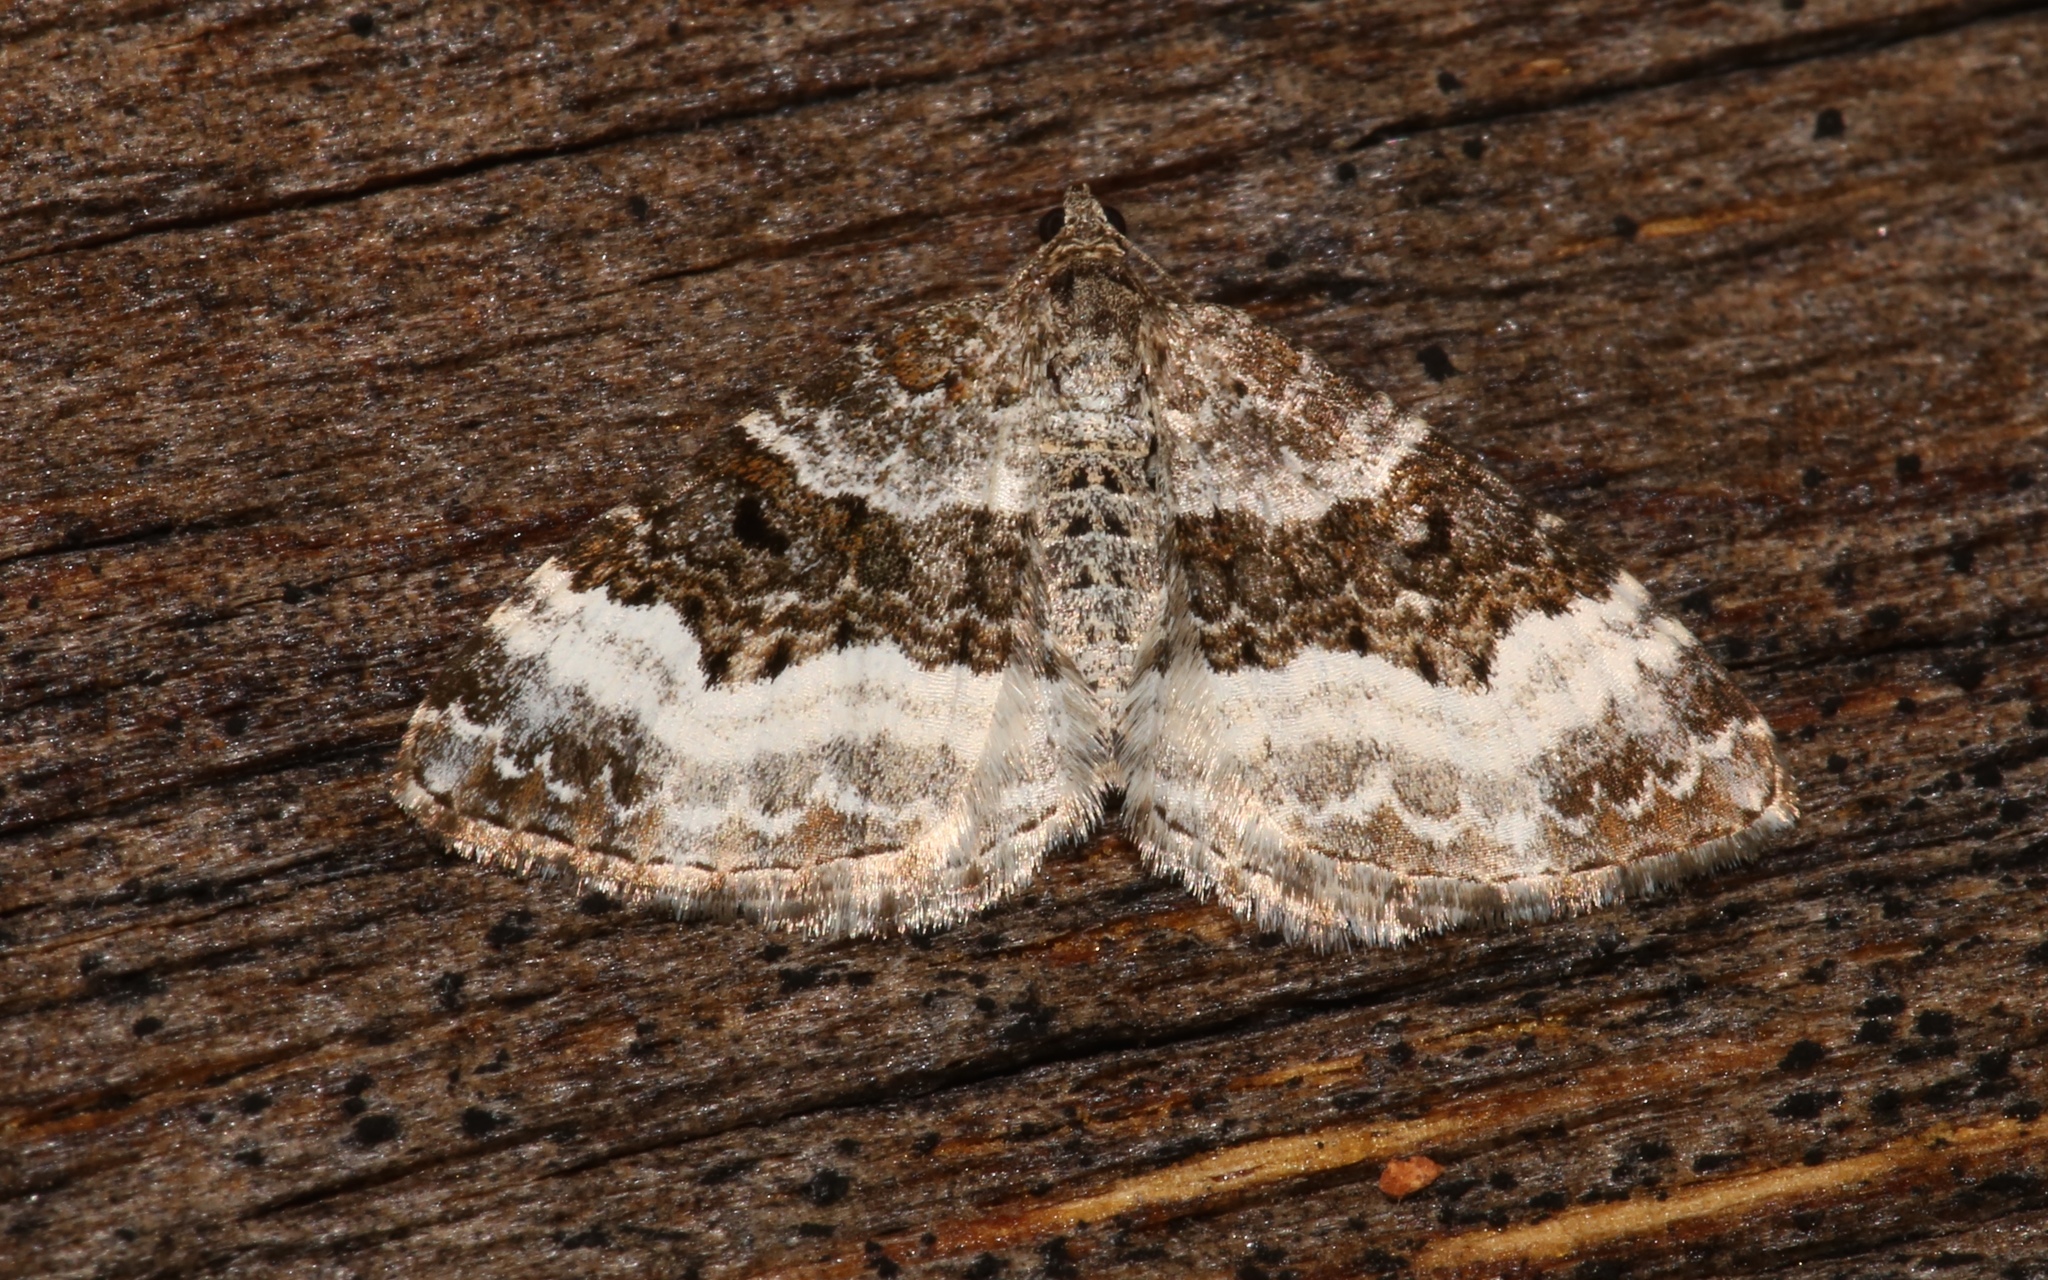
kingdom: Animalia
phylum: Arthropoda
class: Insecta
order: Lepidoptera
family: Geometridae
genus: Epirrhoe
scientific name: Epirrhoe alternata
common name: Common carpet
